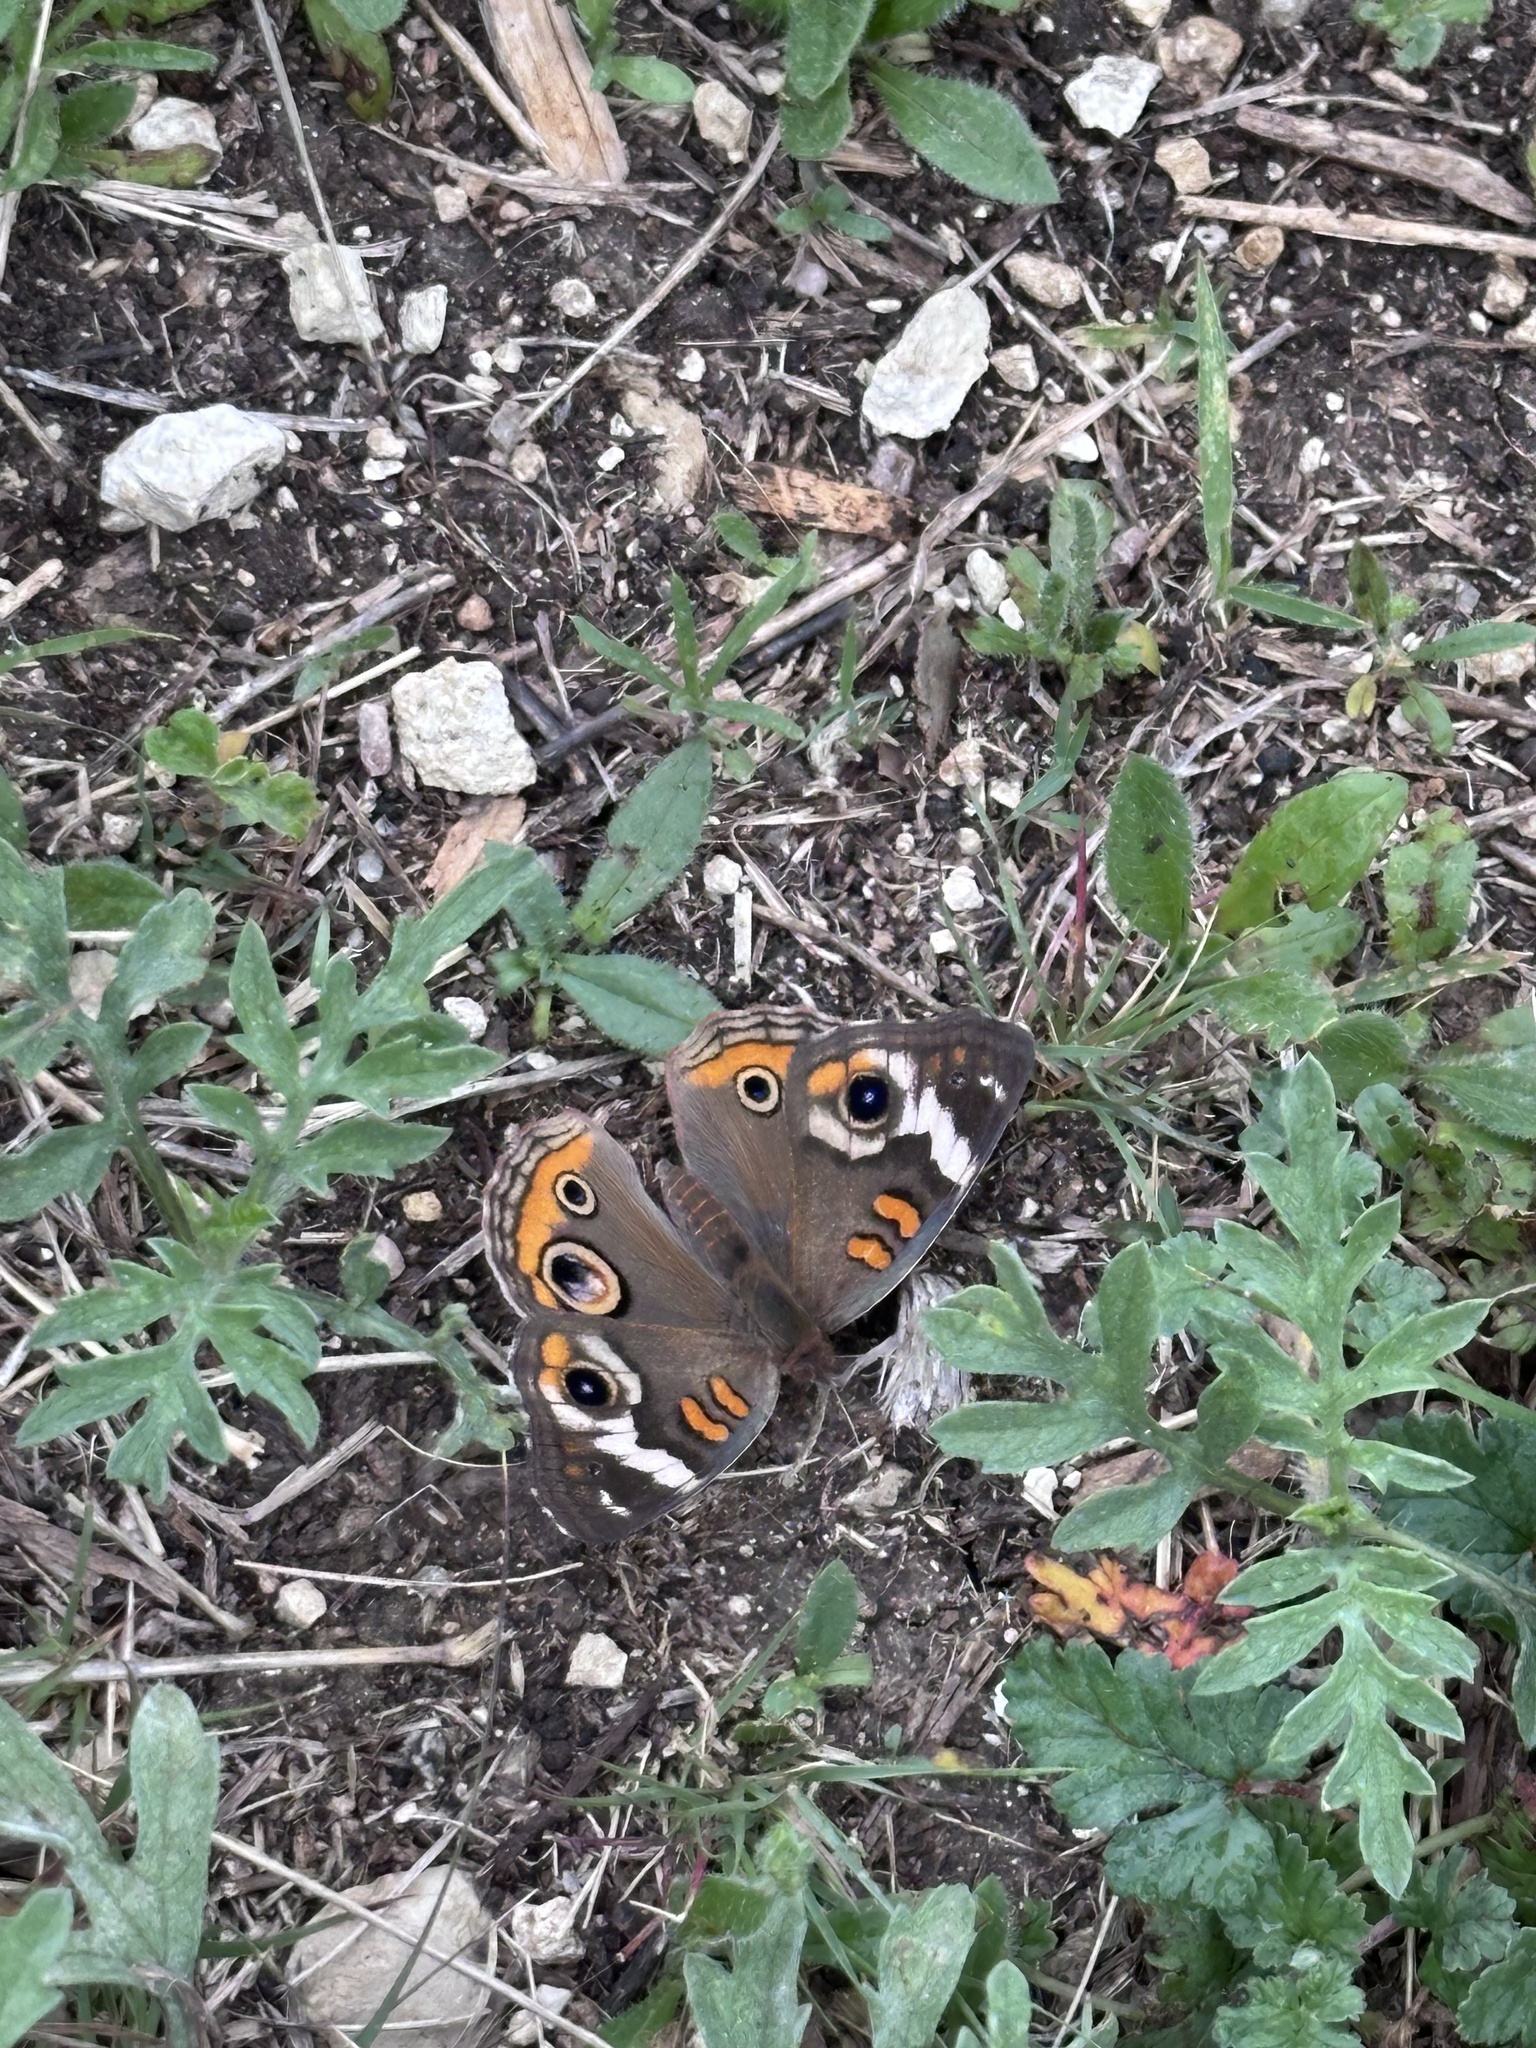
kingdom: Animalia
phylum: Arthropoda
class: Insecta
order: Lepidoptera
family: Nymphalidae
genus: Junonia
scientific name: Junonia coenia
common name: Common buckeye
